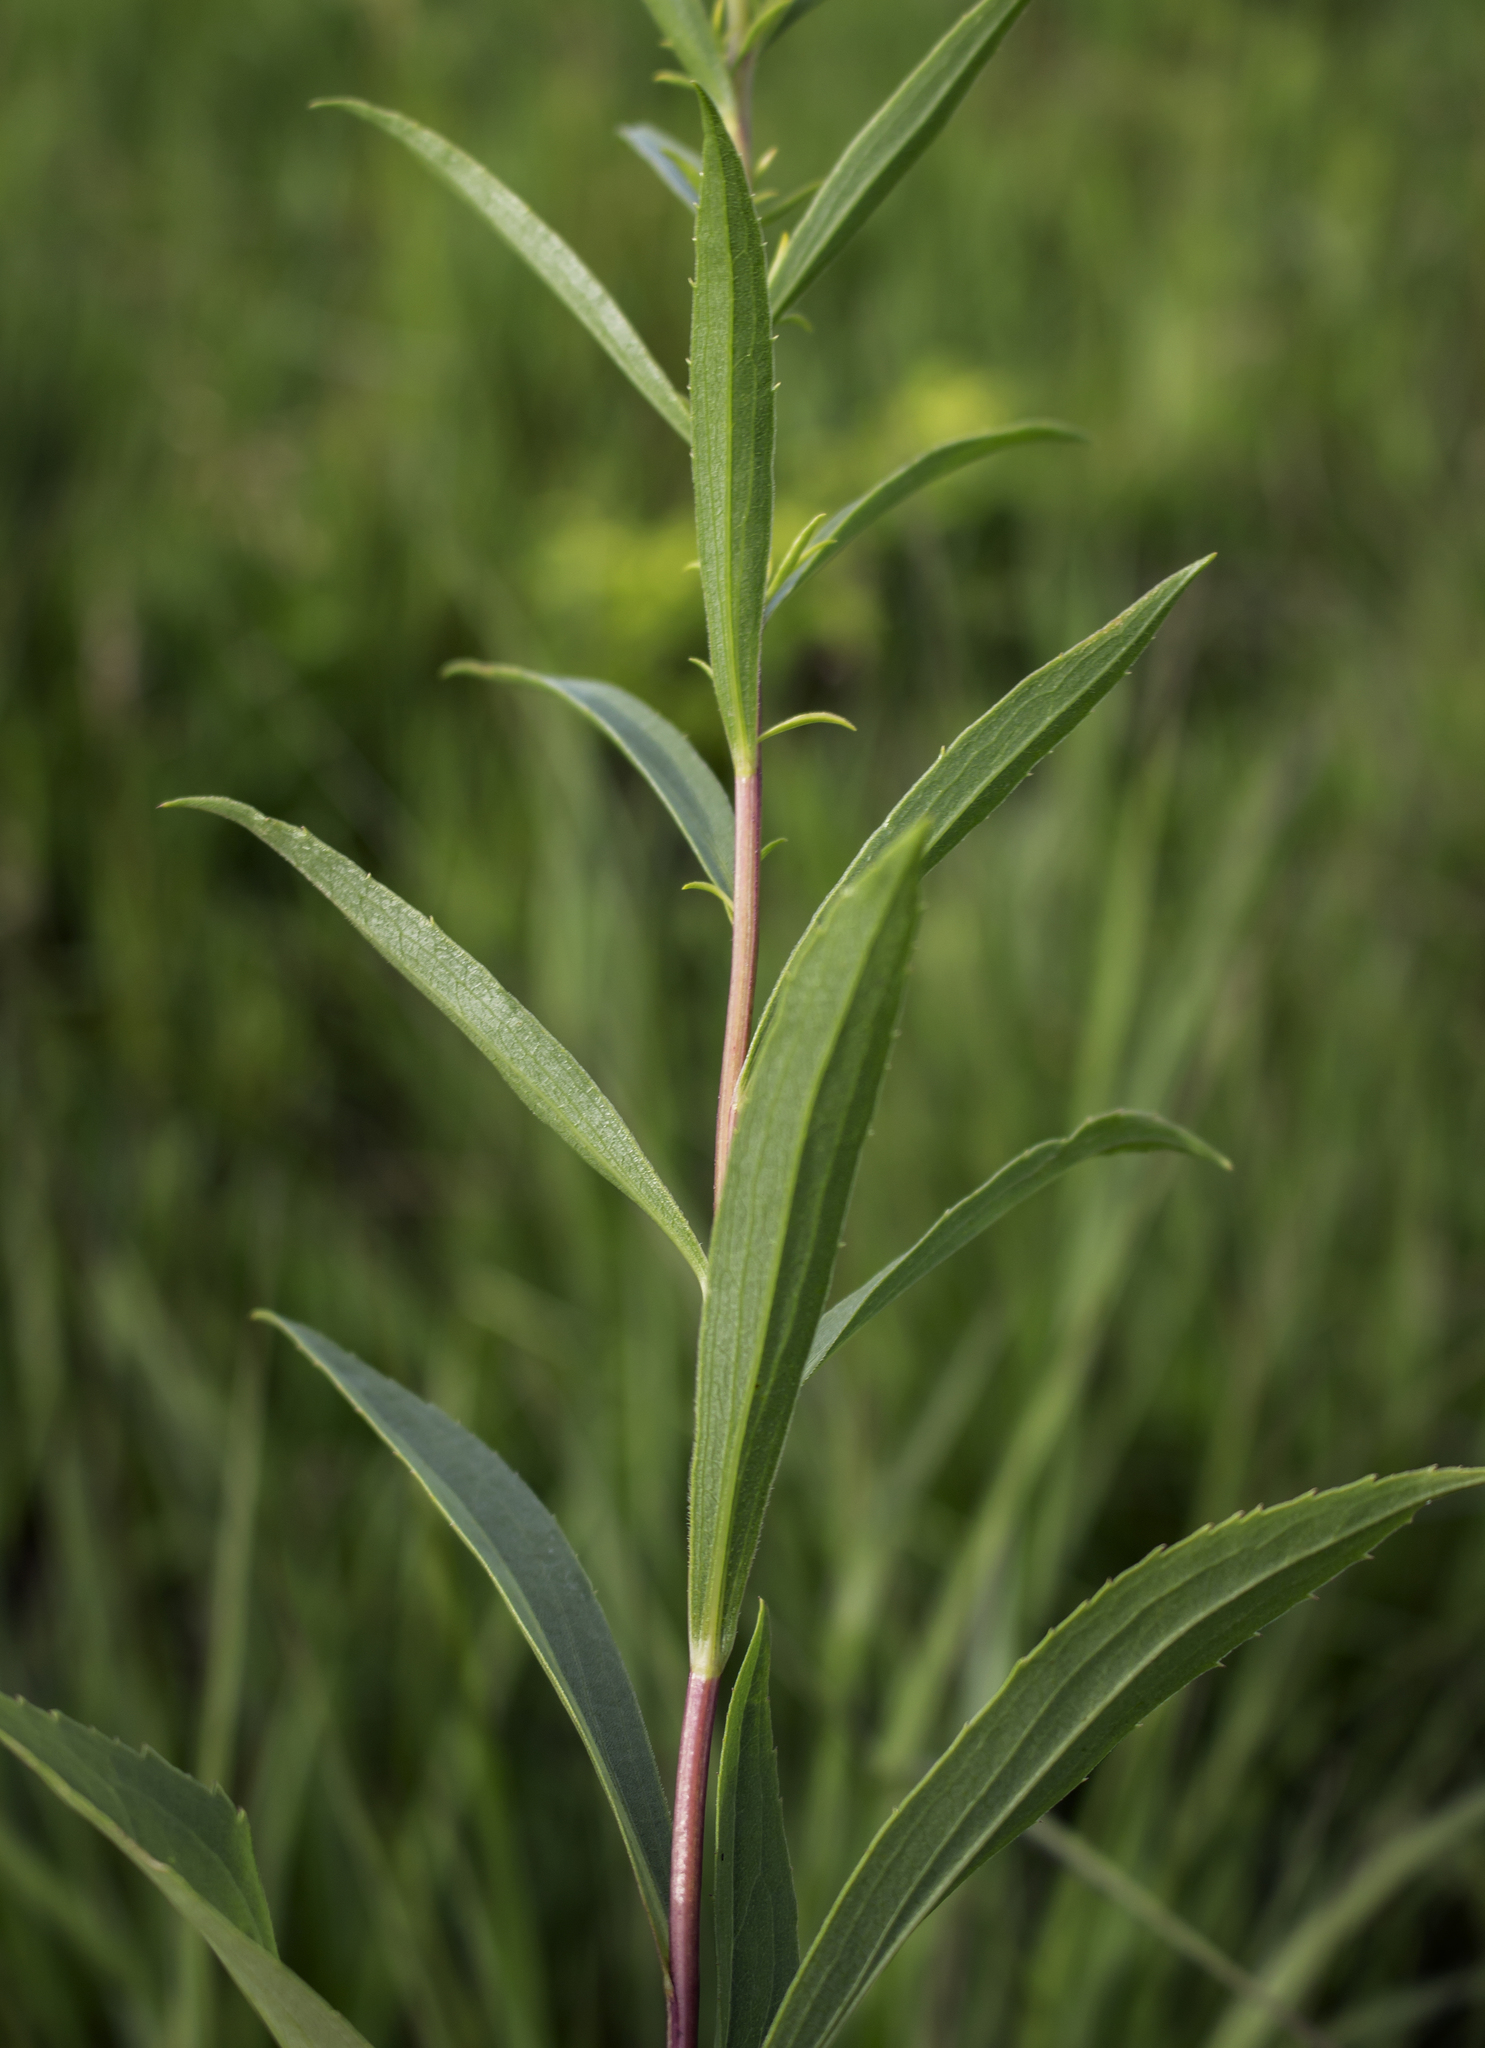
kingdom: Plantae
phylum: Tracheophyta
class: Magnoliopsida
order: Asterales
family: Asteraceae
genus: Solidago
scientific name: Solidago juncea
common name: Early goldenrod
